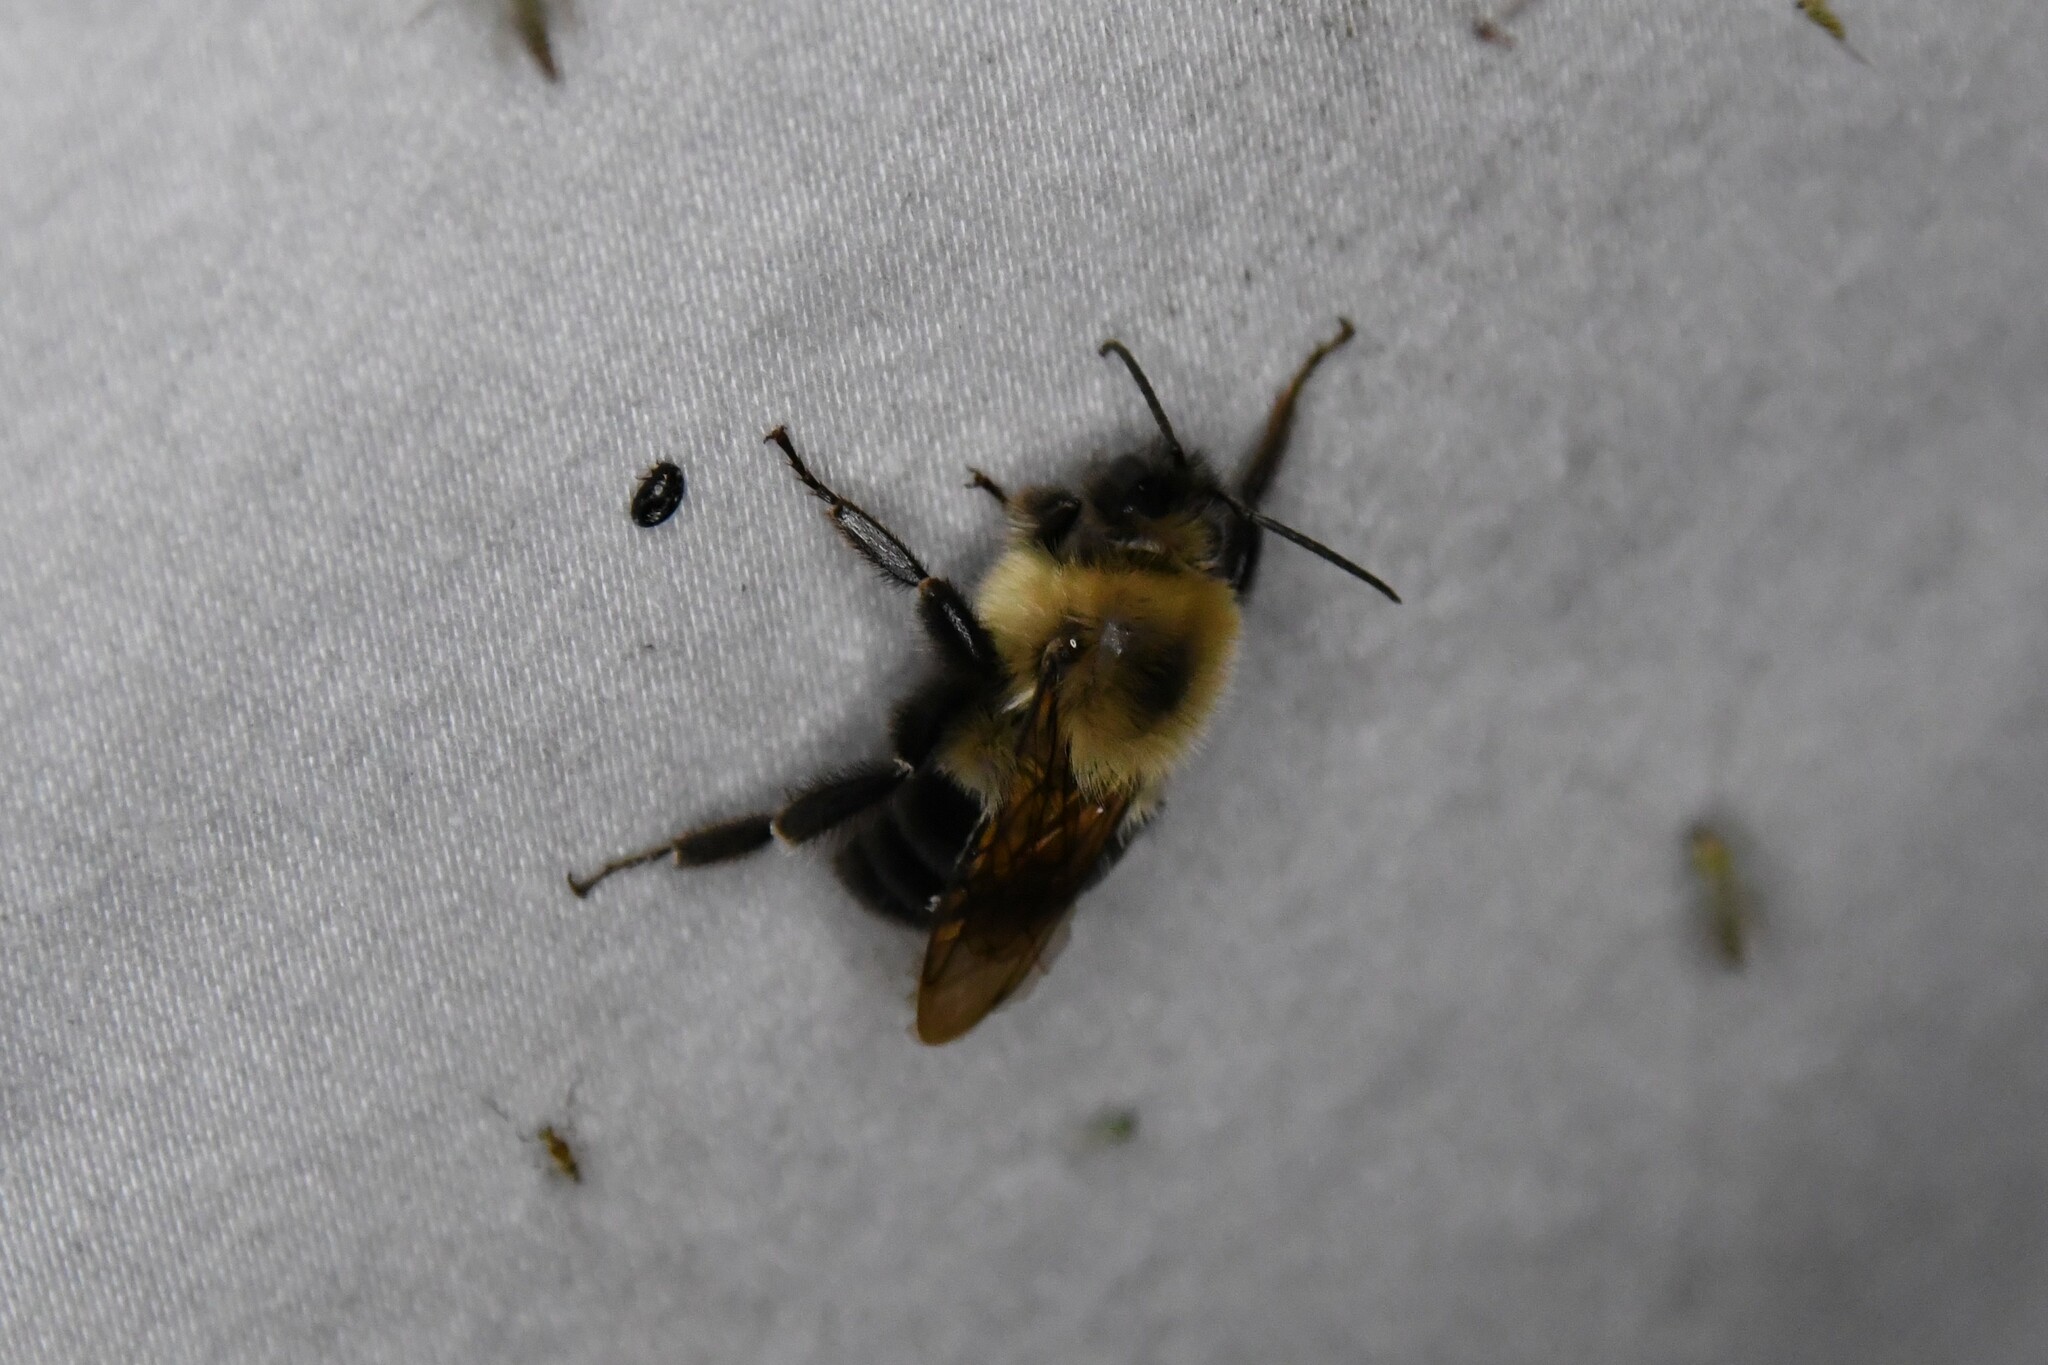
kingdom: Animalia
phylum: Arthropoda
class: Insecta
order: Hymenoptera
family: Apidae
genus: Bombus
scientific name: Bombus bimaculatus
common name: Two-spotted bumble bee
